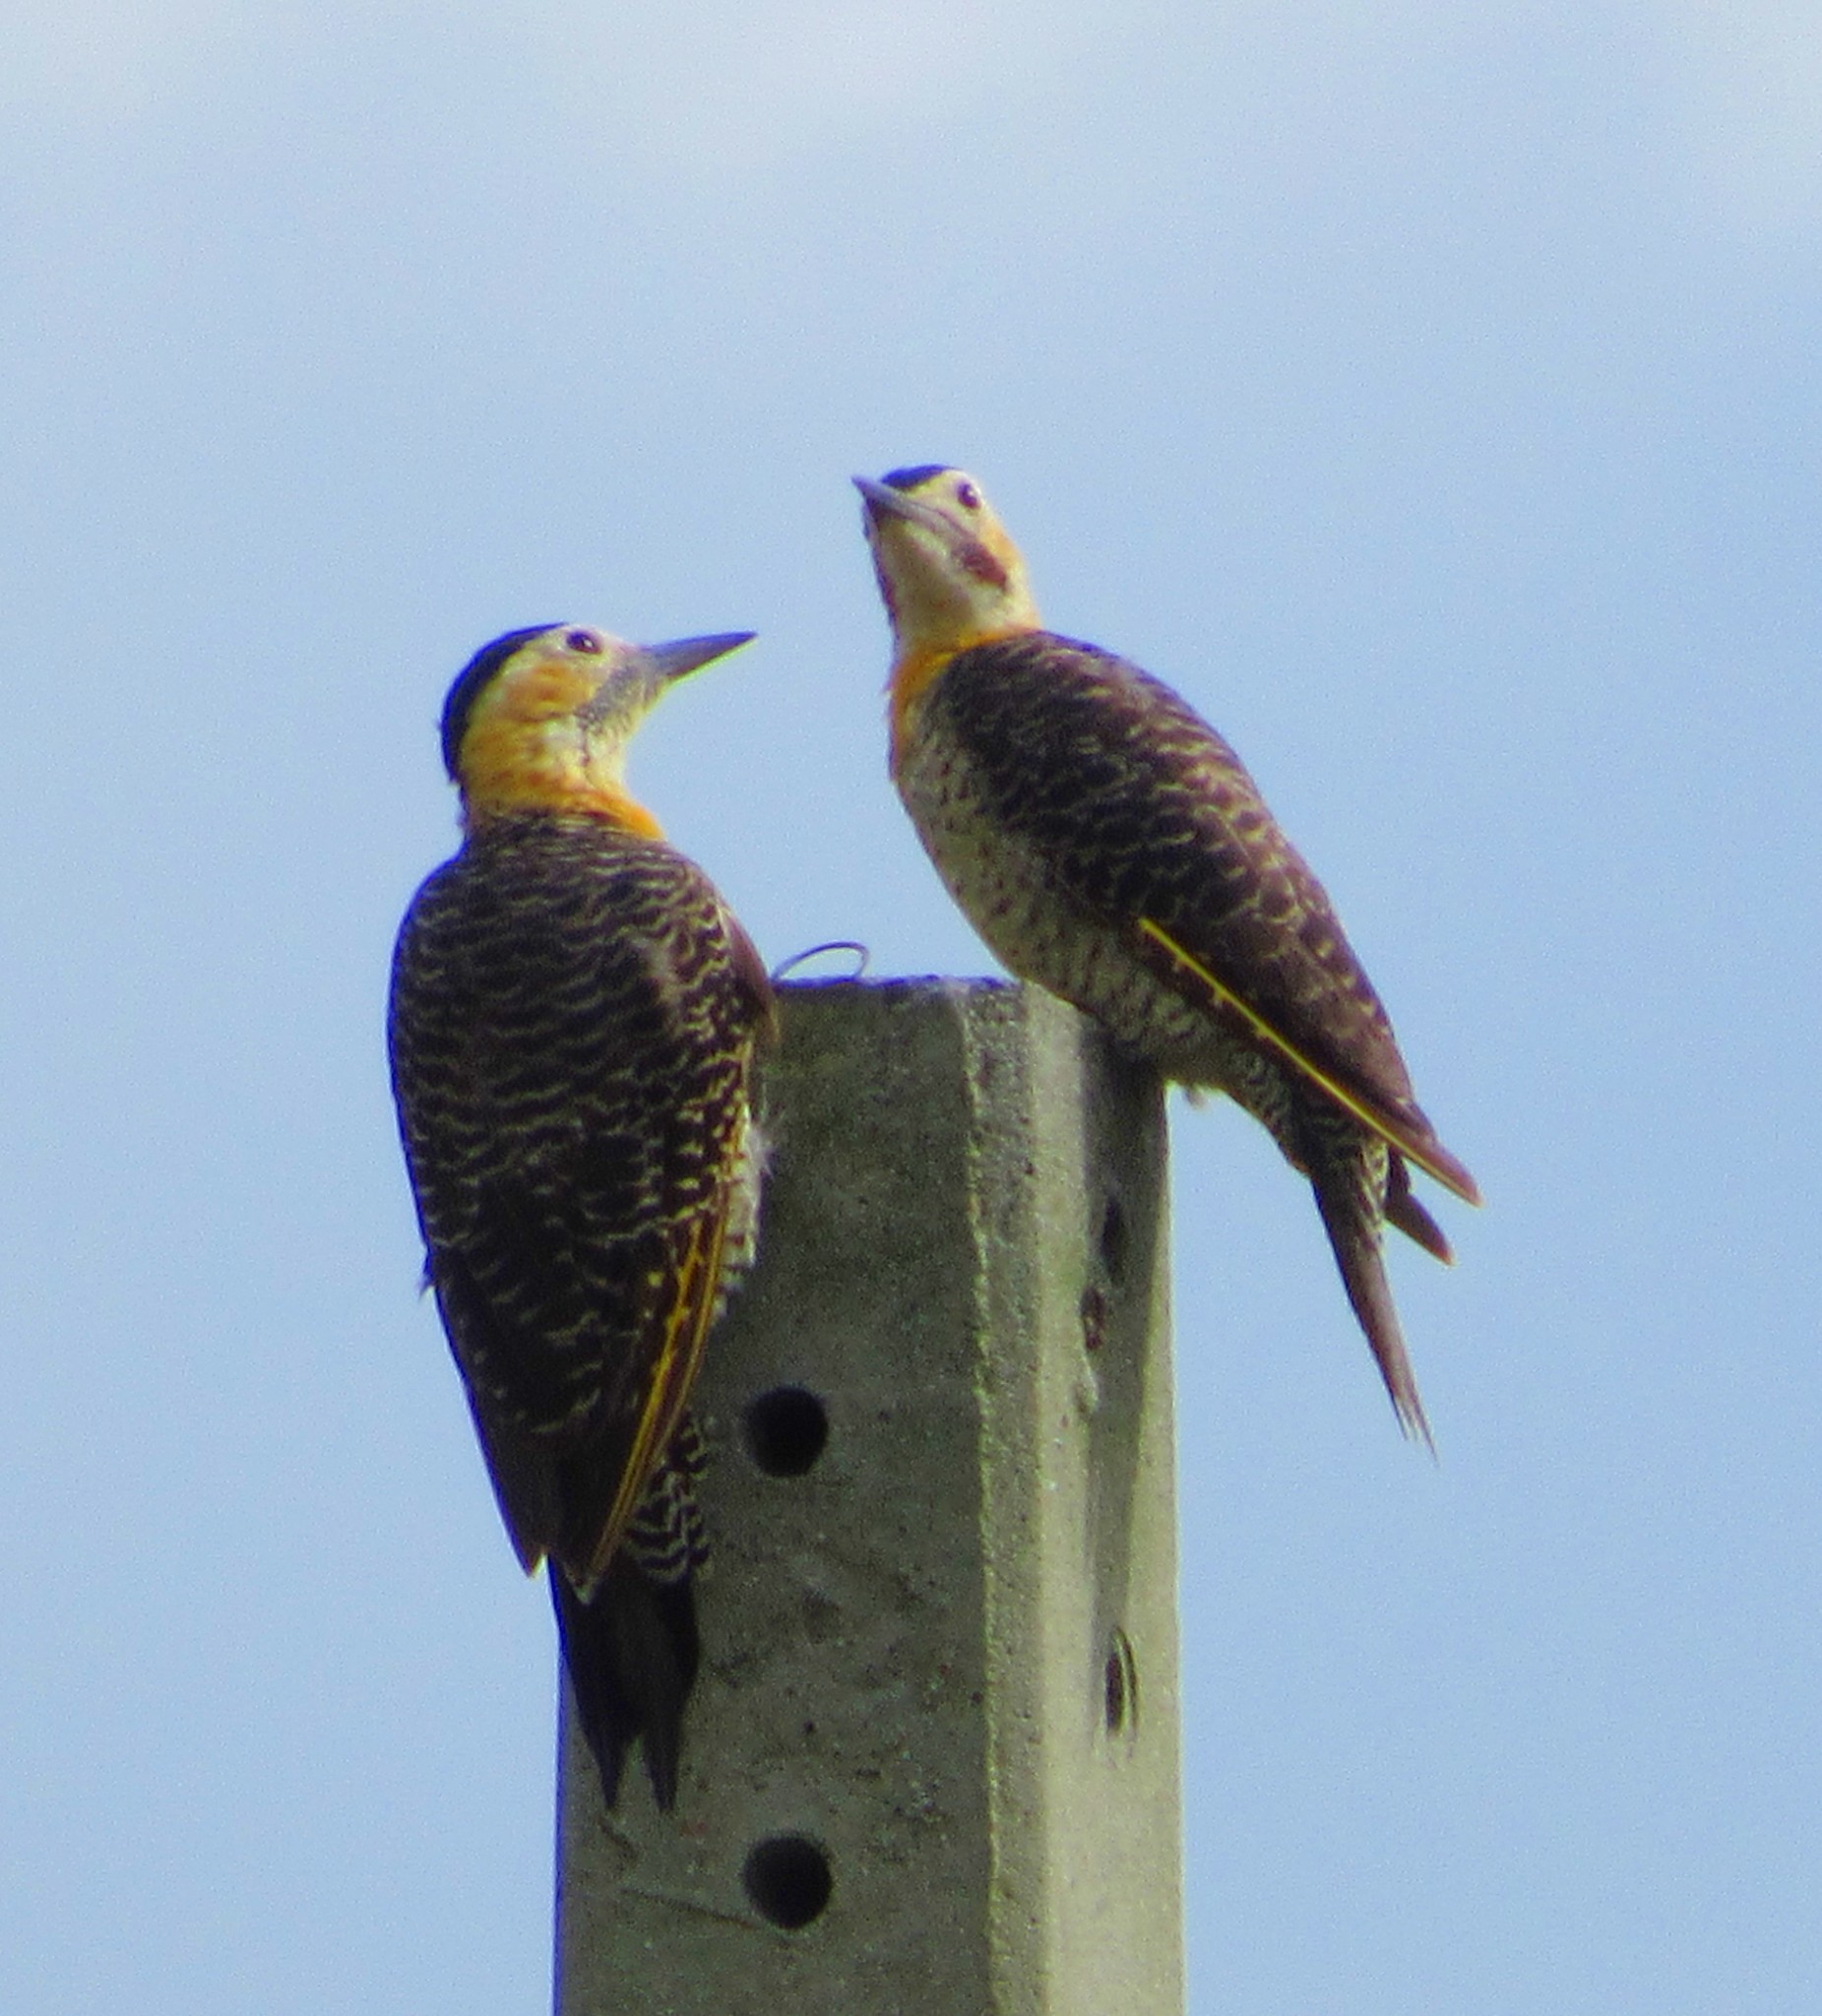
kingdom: Animalia
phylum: Chordata
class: Aves
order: Piciformes
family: Picidae
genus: Colaptes
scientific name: Colaptes campestris
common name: Campo flicker
